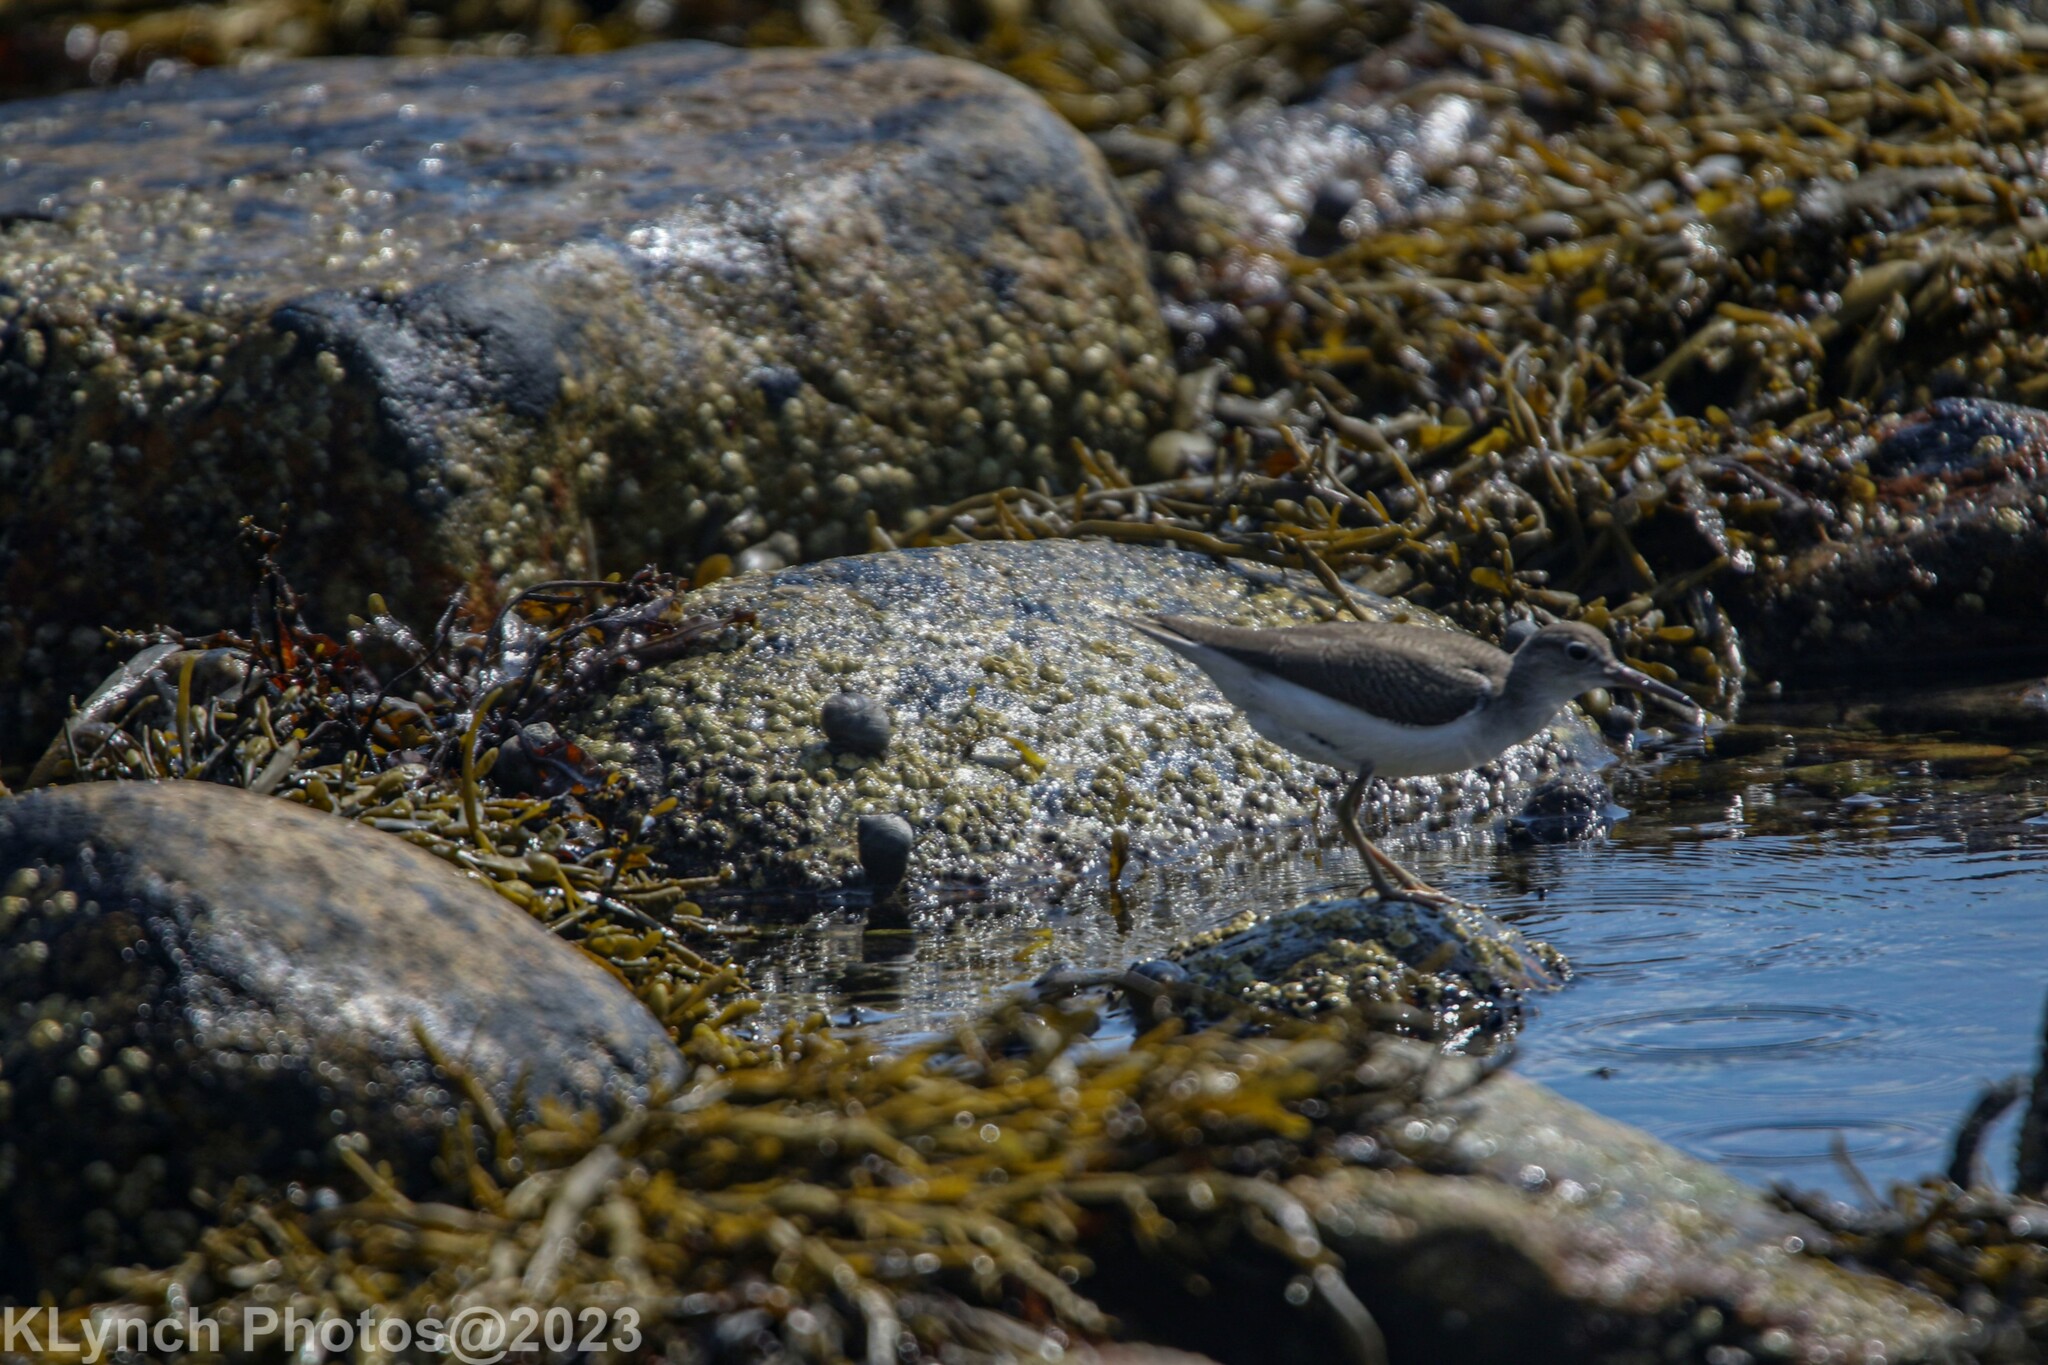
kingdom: Animalia
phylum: Chordata
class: Aves
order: Charadriiformes
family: Scolopacidae
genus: Actitis
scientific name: Actitis macularius
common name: Spotted sandpiper
